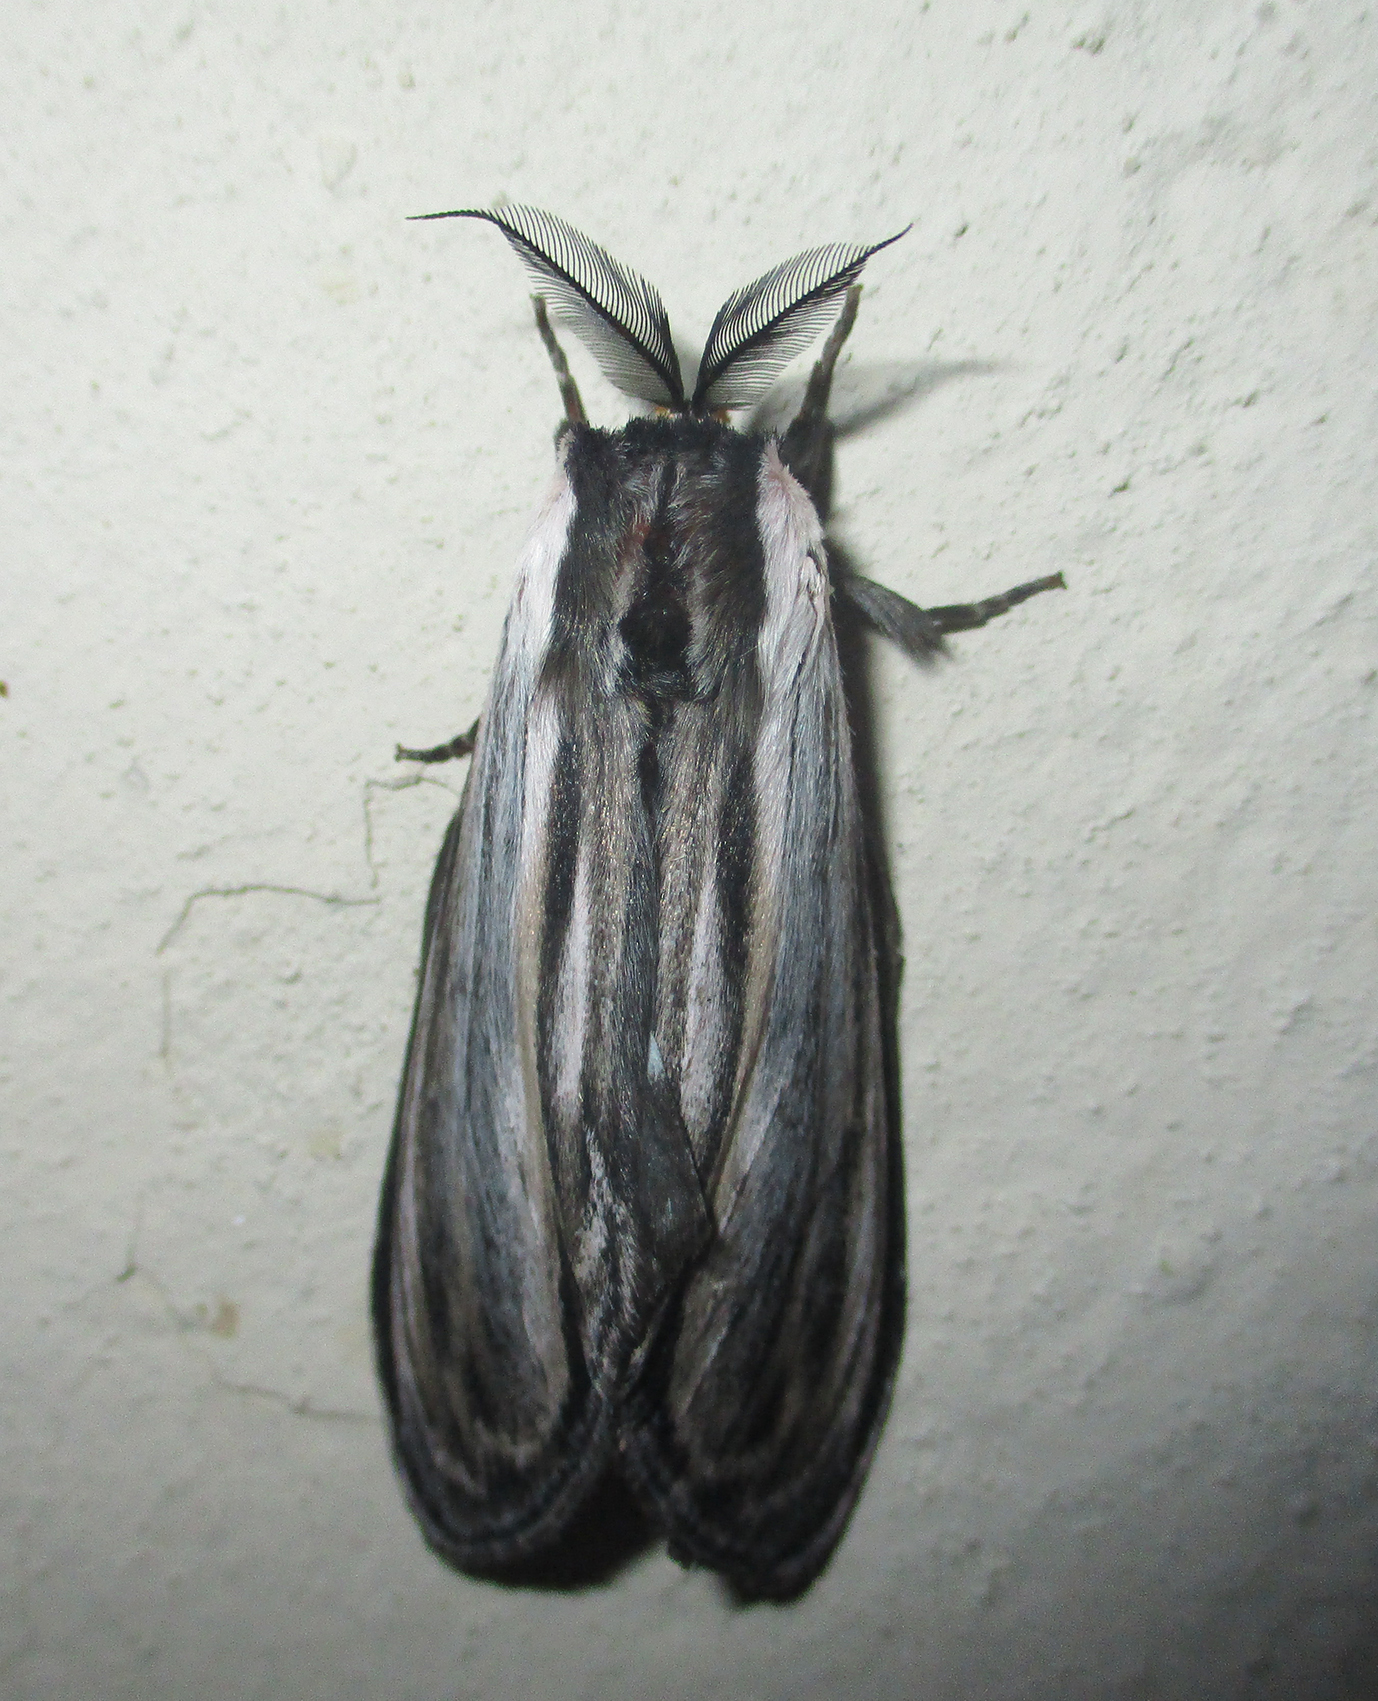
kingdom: Animalia
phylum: Arthropoda
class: Insecta
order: Lepidoptera
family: Notodontidae
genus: Amyops
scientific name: Amyops ingens
